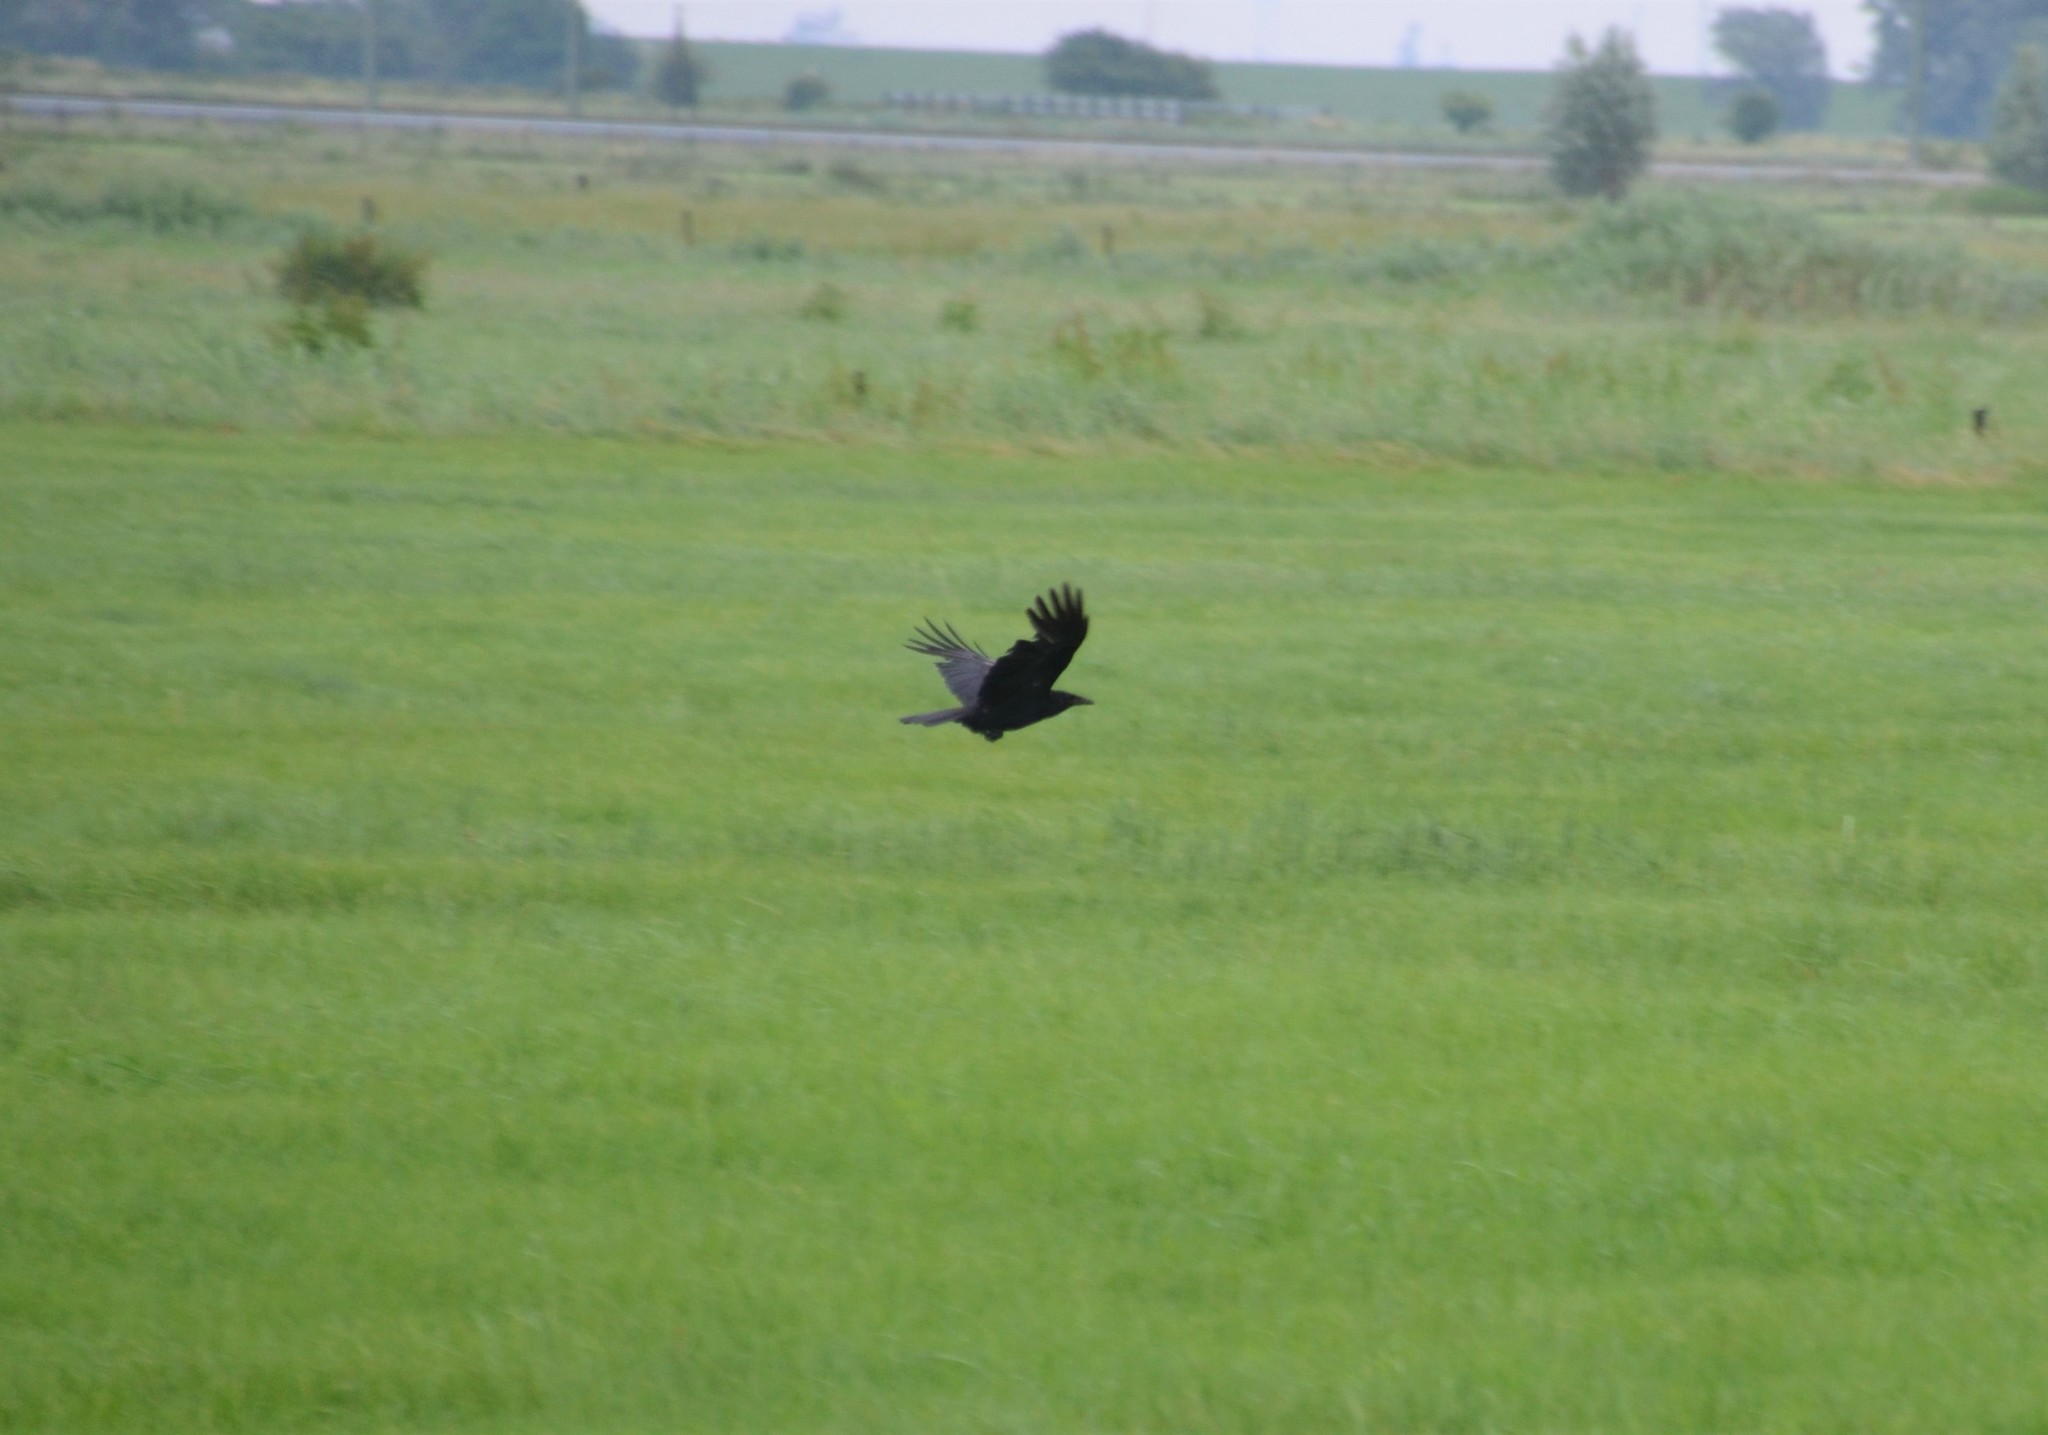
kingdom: Animalia
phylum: Chordata
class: Aves
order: Passeriformes
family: Corvidae
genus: Corvus
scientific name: Corvus corone
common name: Carrion crow
